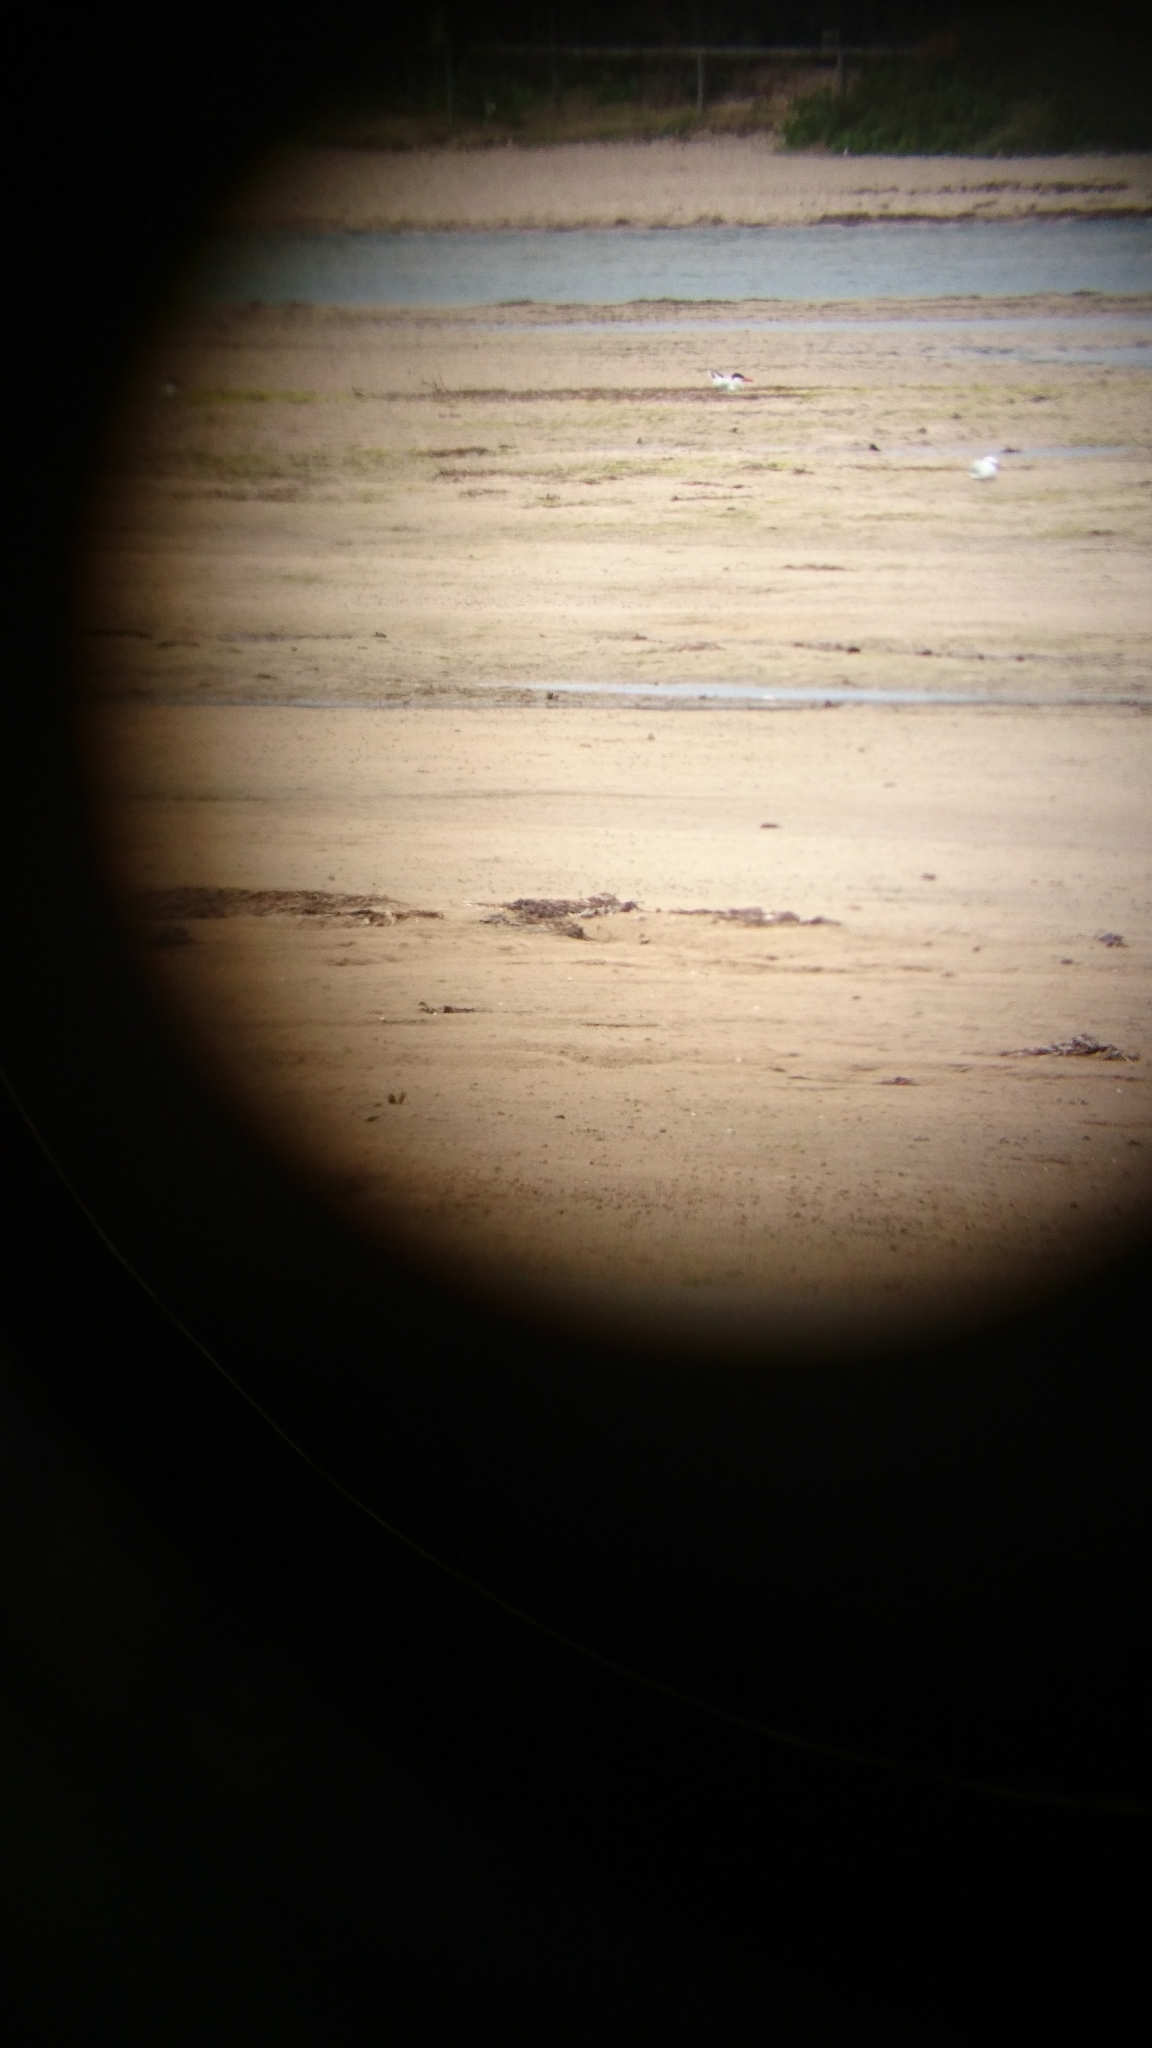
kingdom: Animalia
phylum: Chordata
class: Aves
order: Charadriiformes
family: Laridae
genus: Hydroprogne
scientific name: Hydroprogne caspia
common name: Caspian tern
